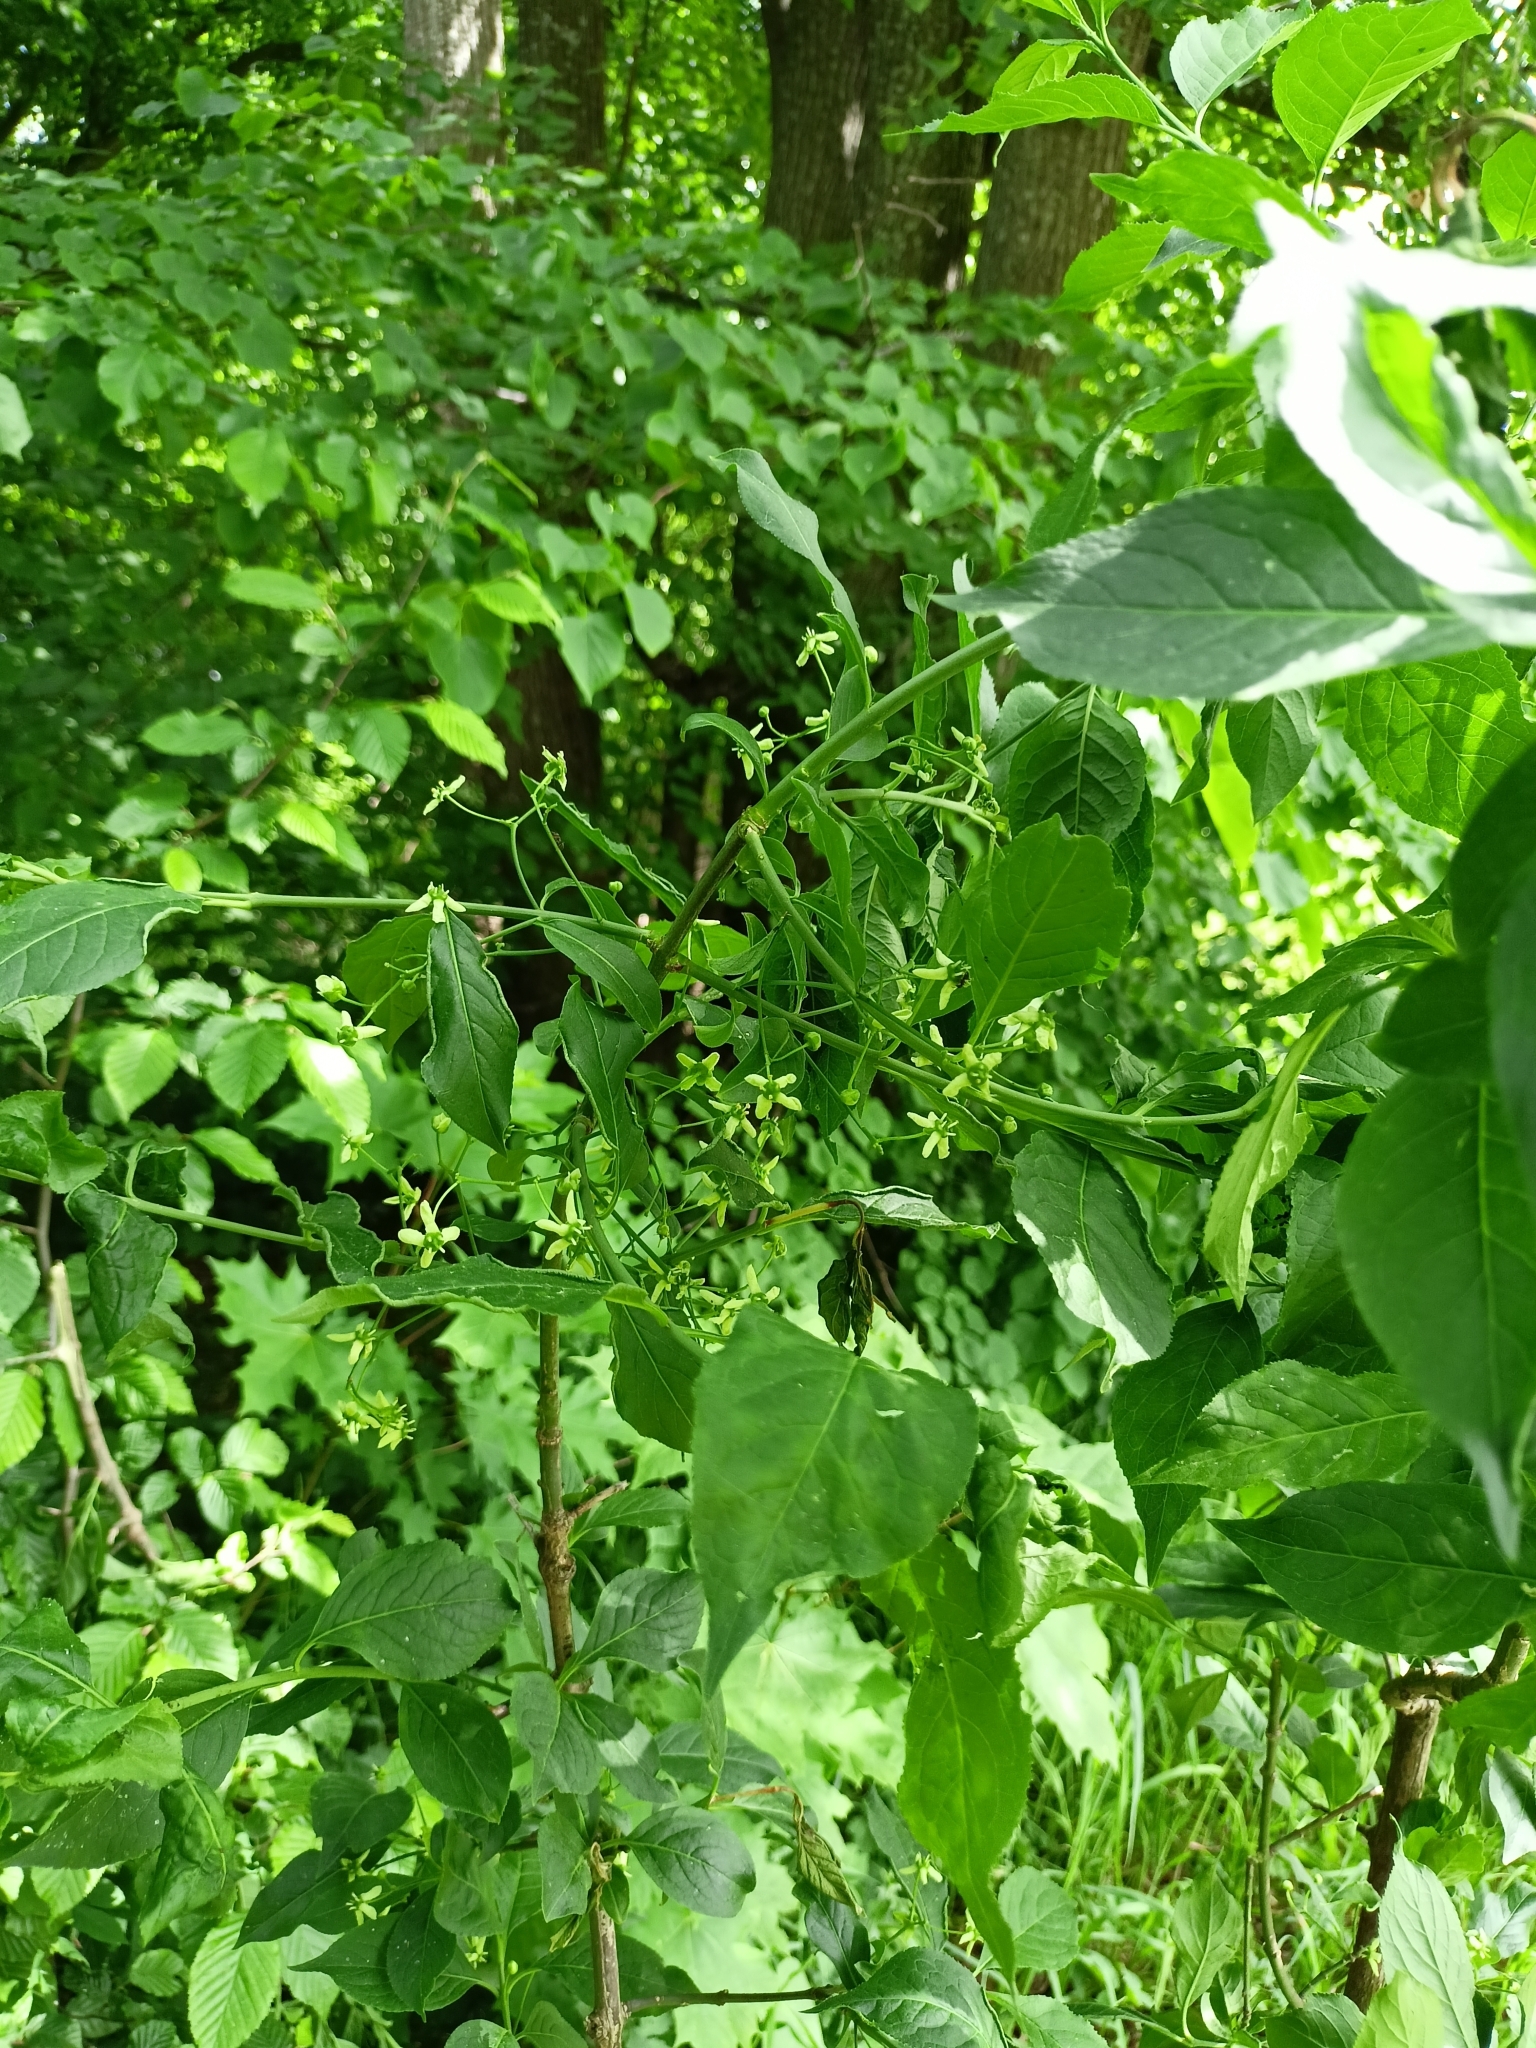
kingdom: Plantae
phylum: Tracheophyta
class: Magnoliopsida
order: Celastrales
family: Celastraceae
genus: Euonymus
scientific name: Euonymus europaeus
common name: Spindle
